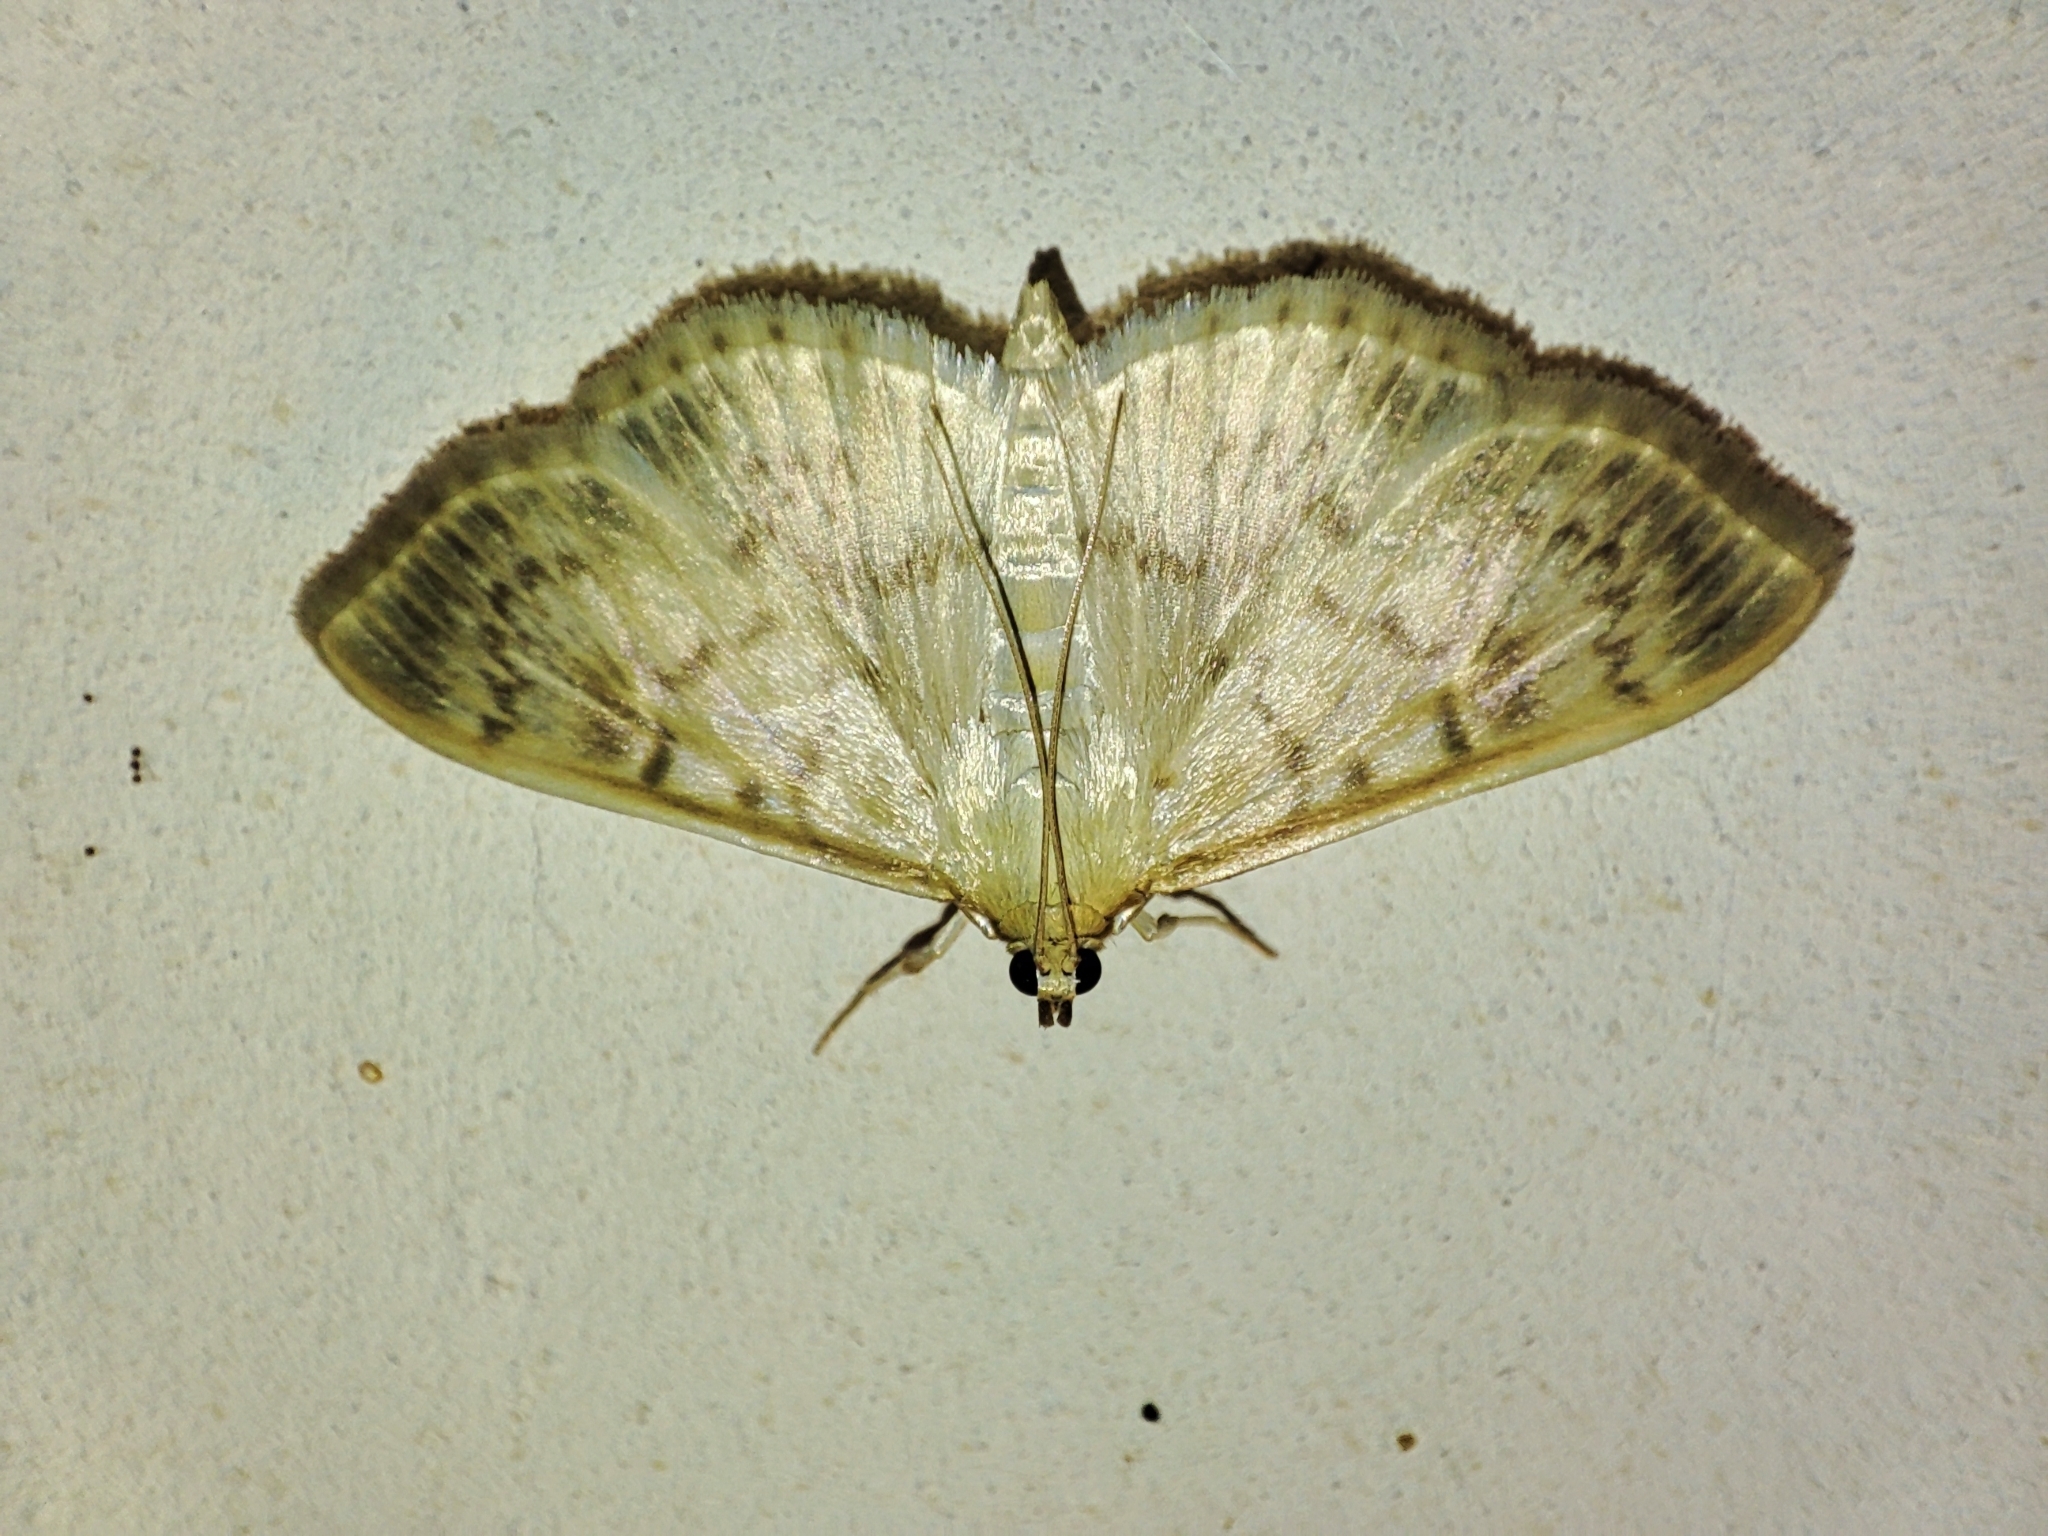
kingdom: Animalia
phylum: Arthropoda
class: Insecta
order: Lepidoptera
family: Crambidae
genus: Patania
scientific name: Patania ruralis
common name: Mother of pearl
